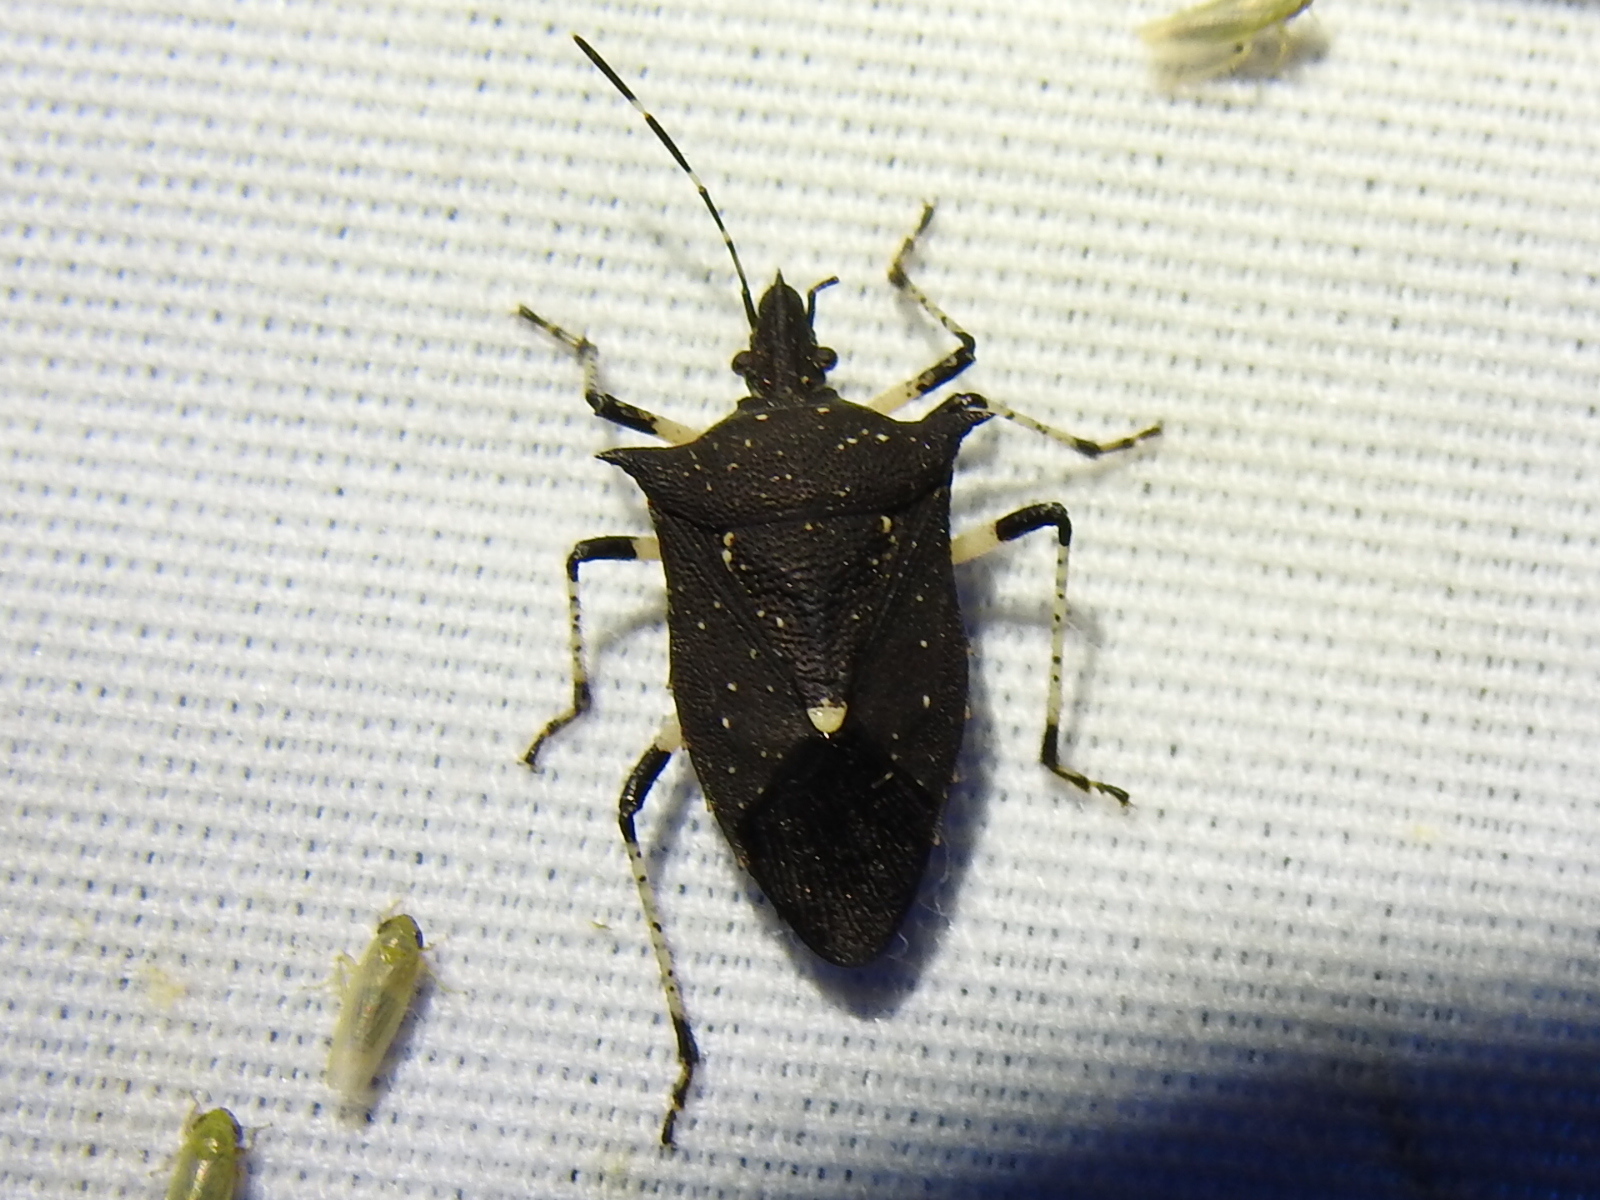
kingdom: Animalia
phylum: Arthropoda
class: Insecta
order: Hemiptera
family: Pentatomidae
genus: Proxys
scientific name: Proxys punctulatus
